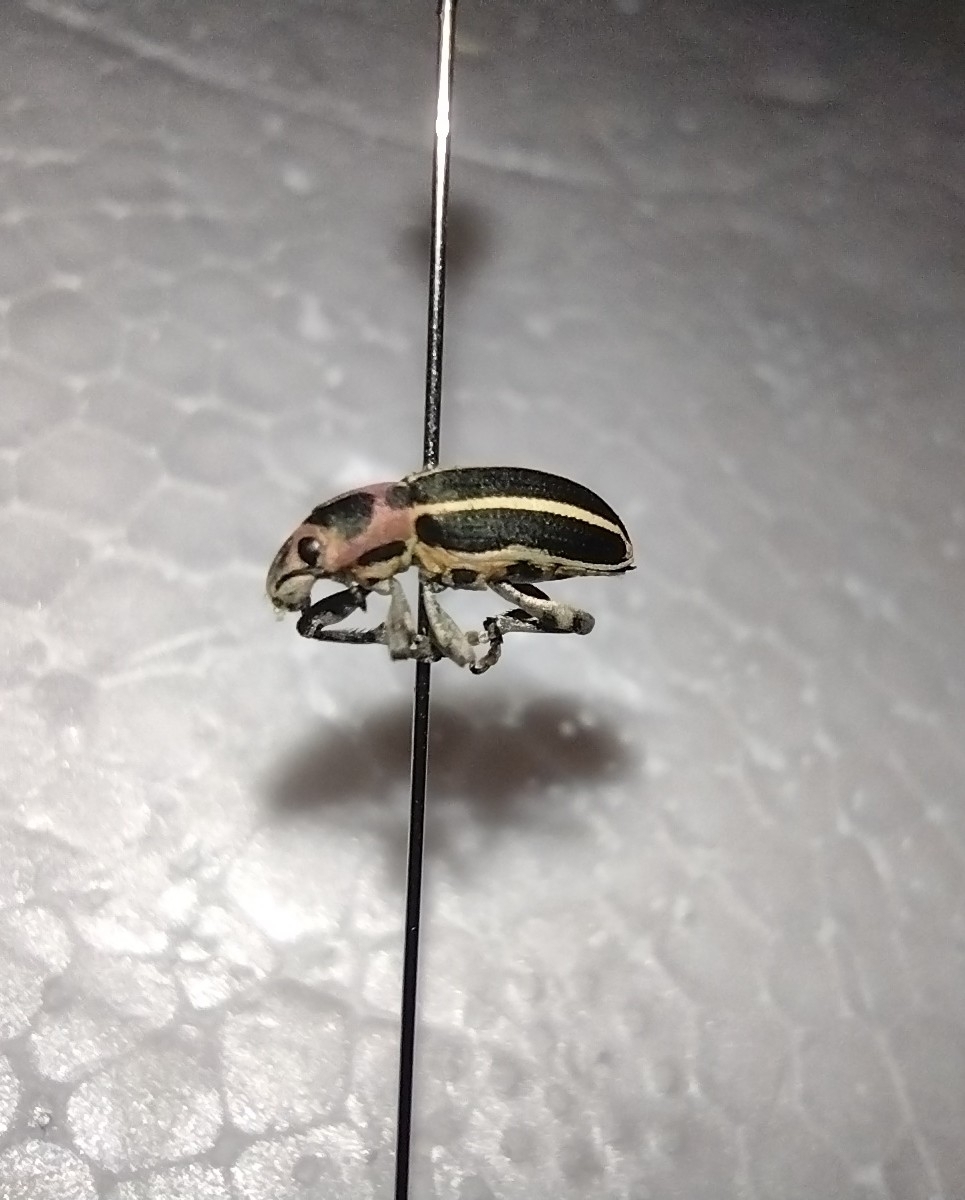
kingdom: Animalia
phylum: Arthropoda
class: Insecta
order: Coleoptera
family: Curculionidae
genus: Eudiagogus
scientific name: Eudiagogus maryae
